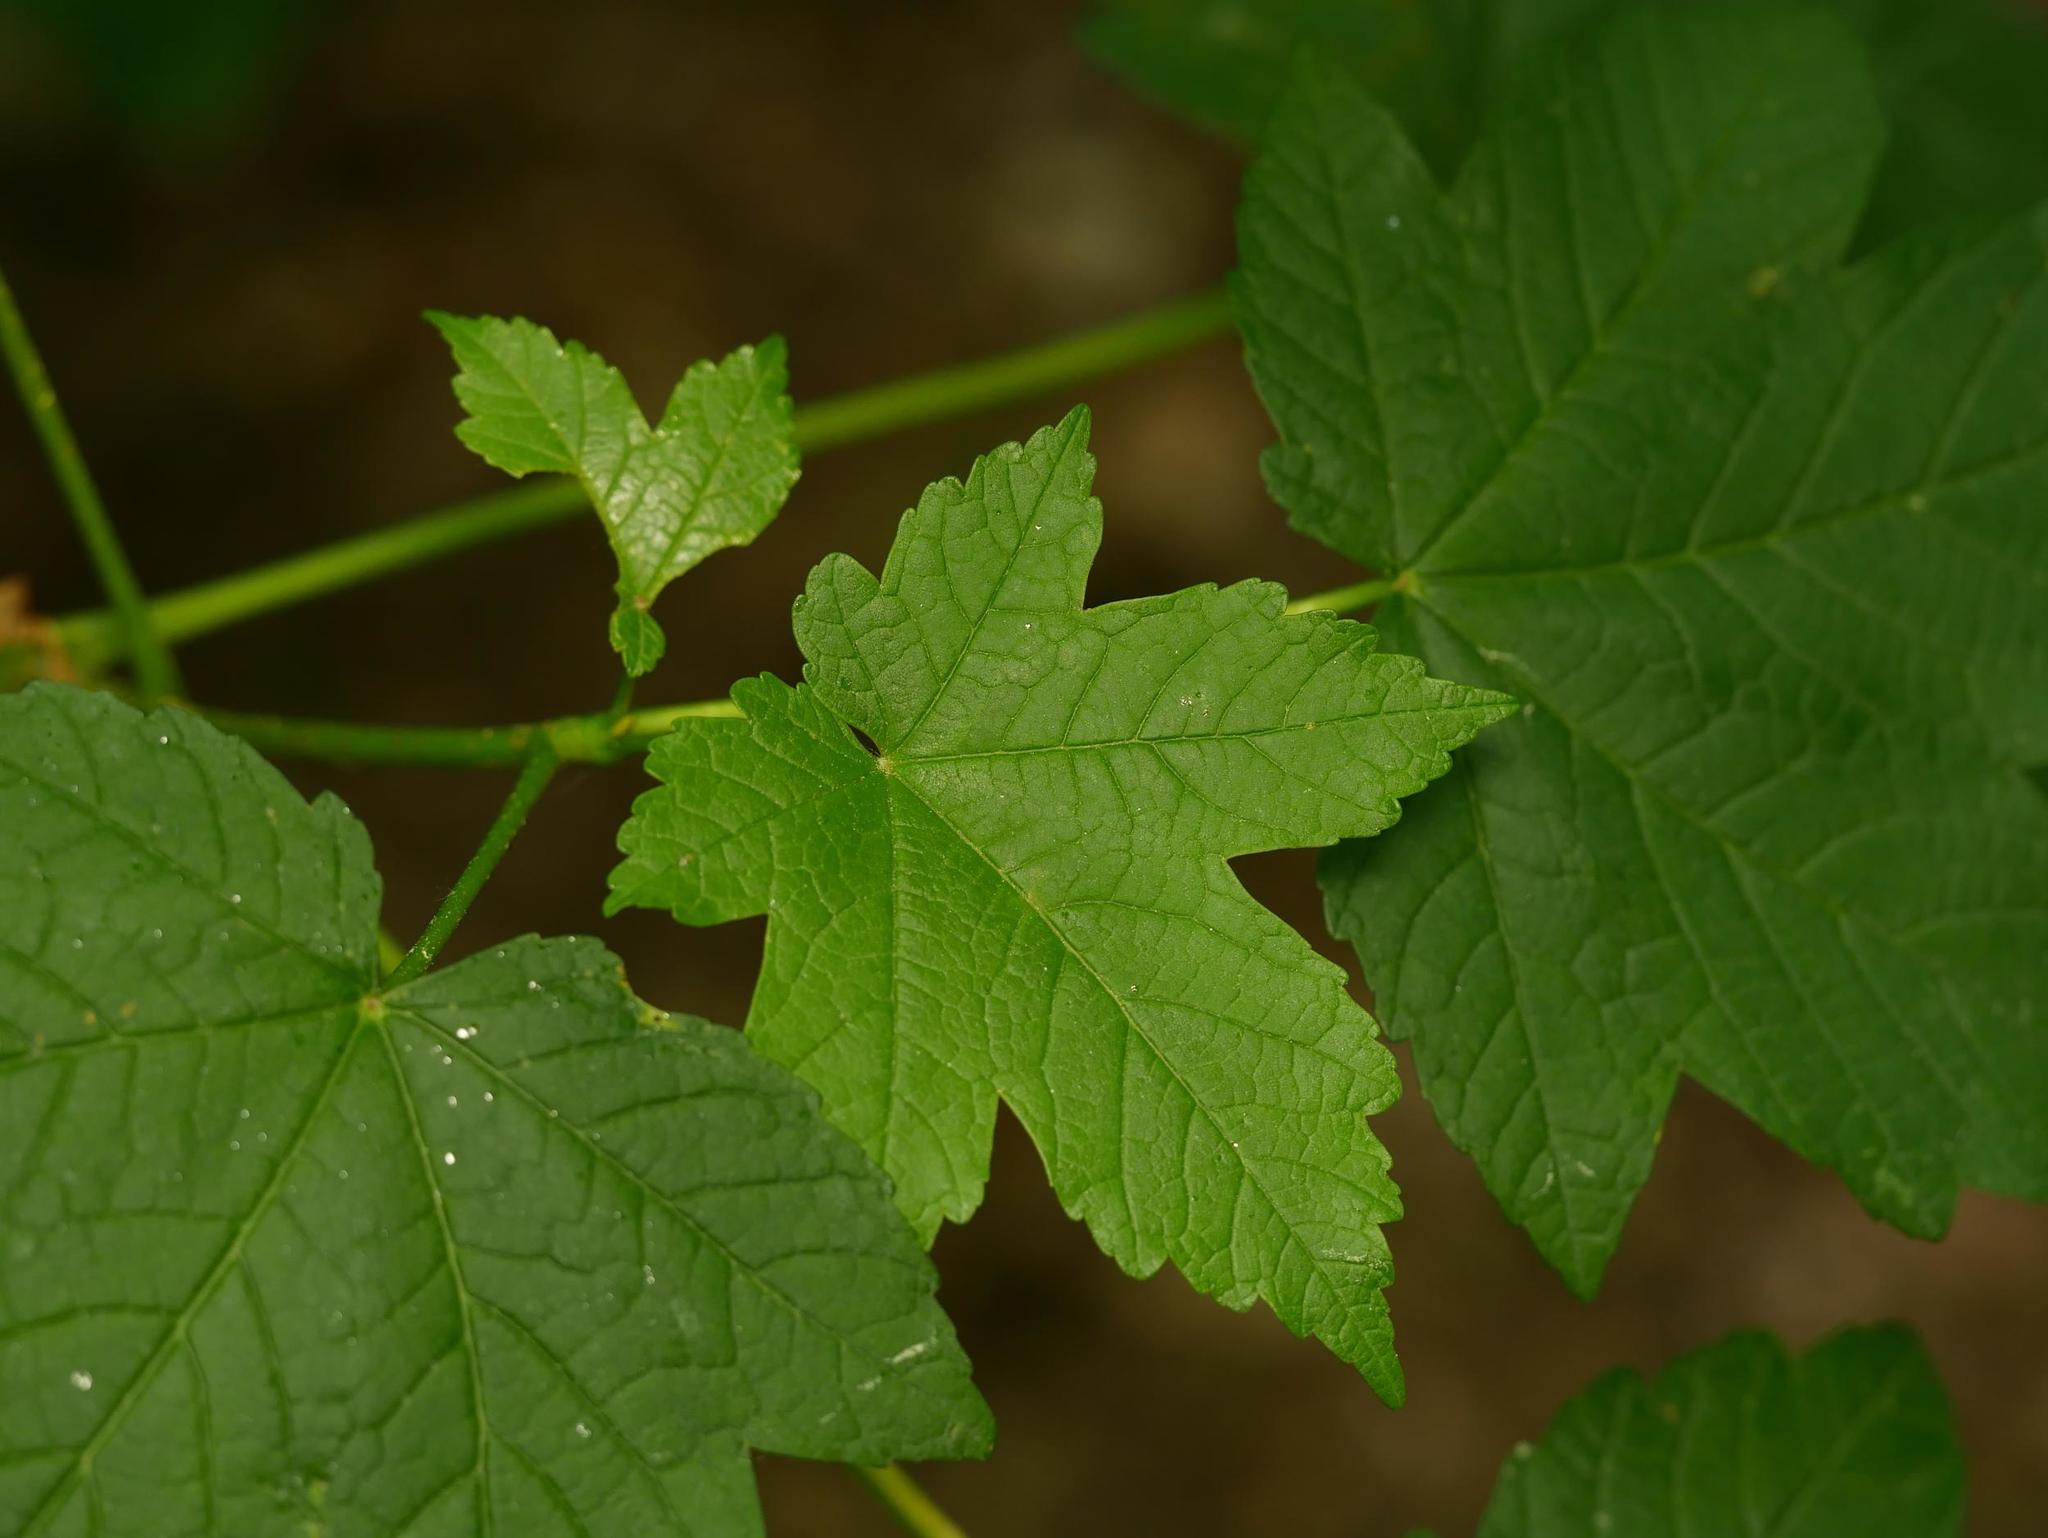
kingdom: Plantae
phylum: Tracheophyta
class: Magnoliopsida
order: Sapindales
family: Sapindaceae
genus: Acer
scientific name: Acer pseudoplatanus
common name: Sycamore
